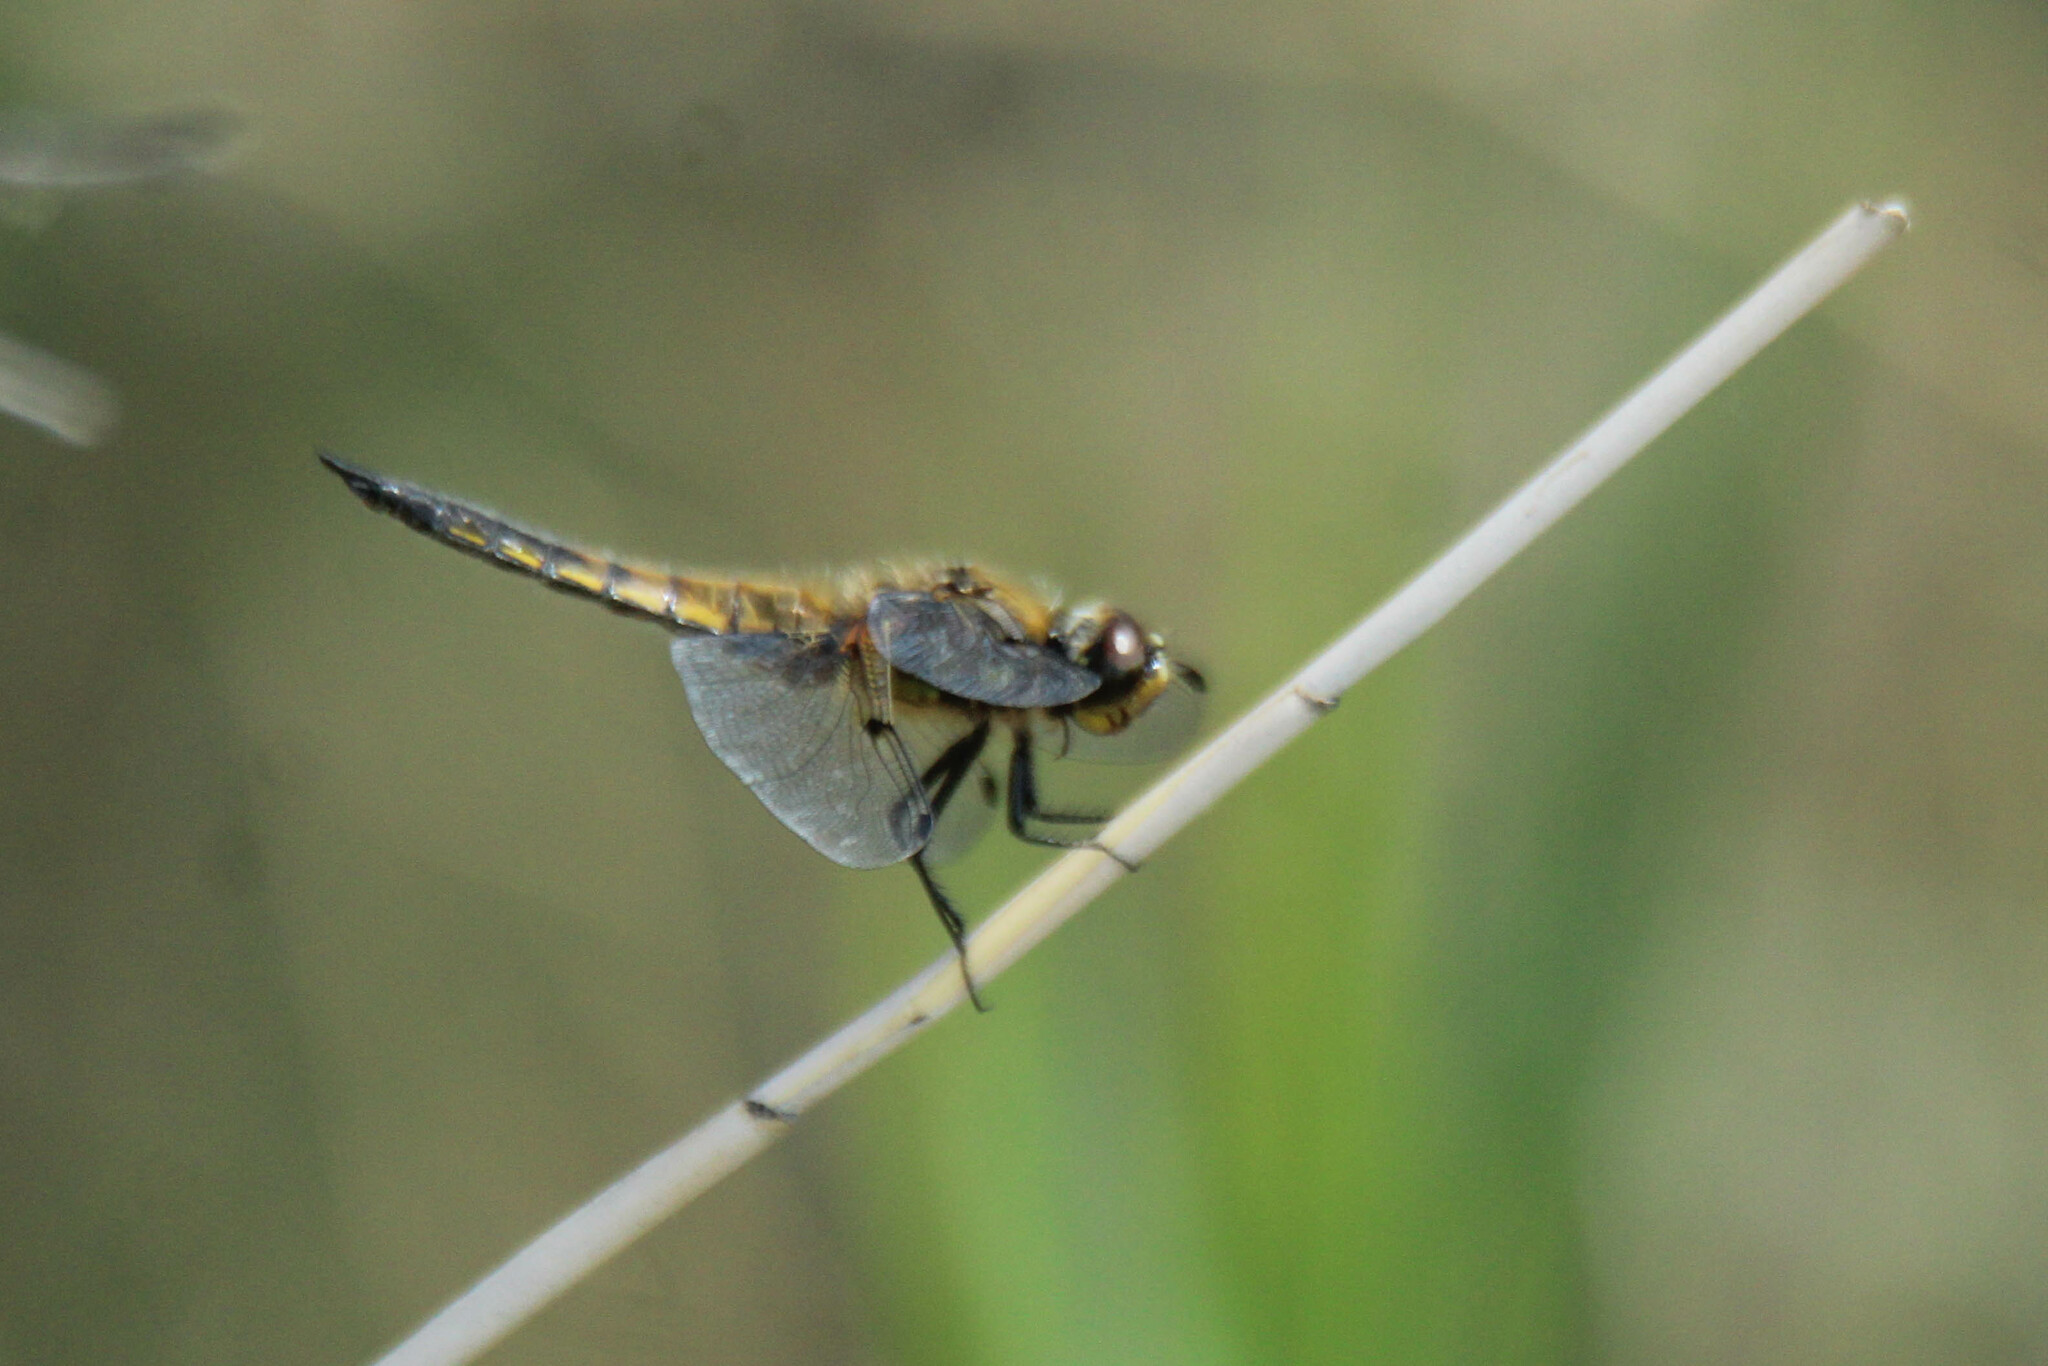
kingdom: Animalia
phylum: Arthropoda
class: Insecta
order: Odonata
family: Libellulidae
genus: Libellula
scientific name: Libellula quadrimaculata
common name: Four-spotted chaser
